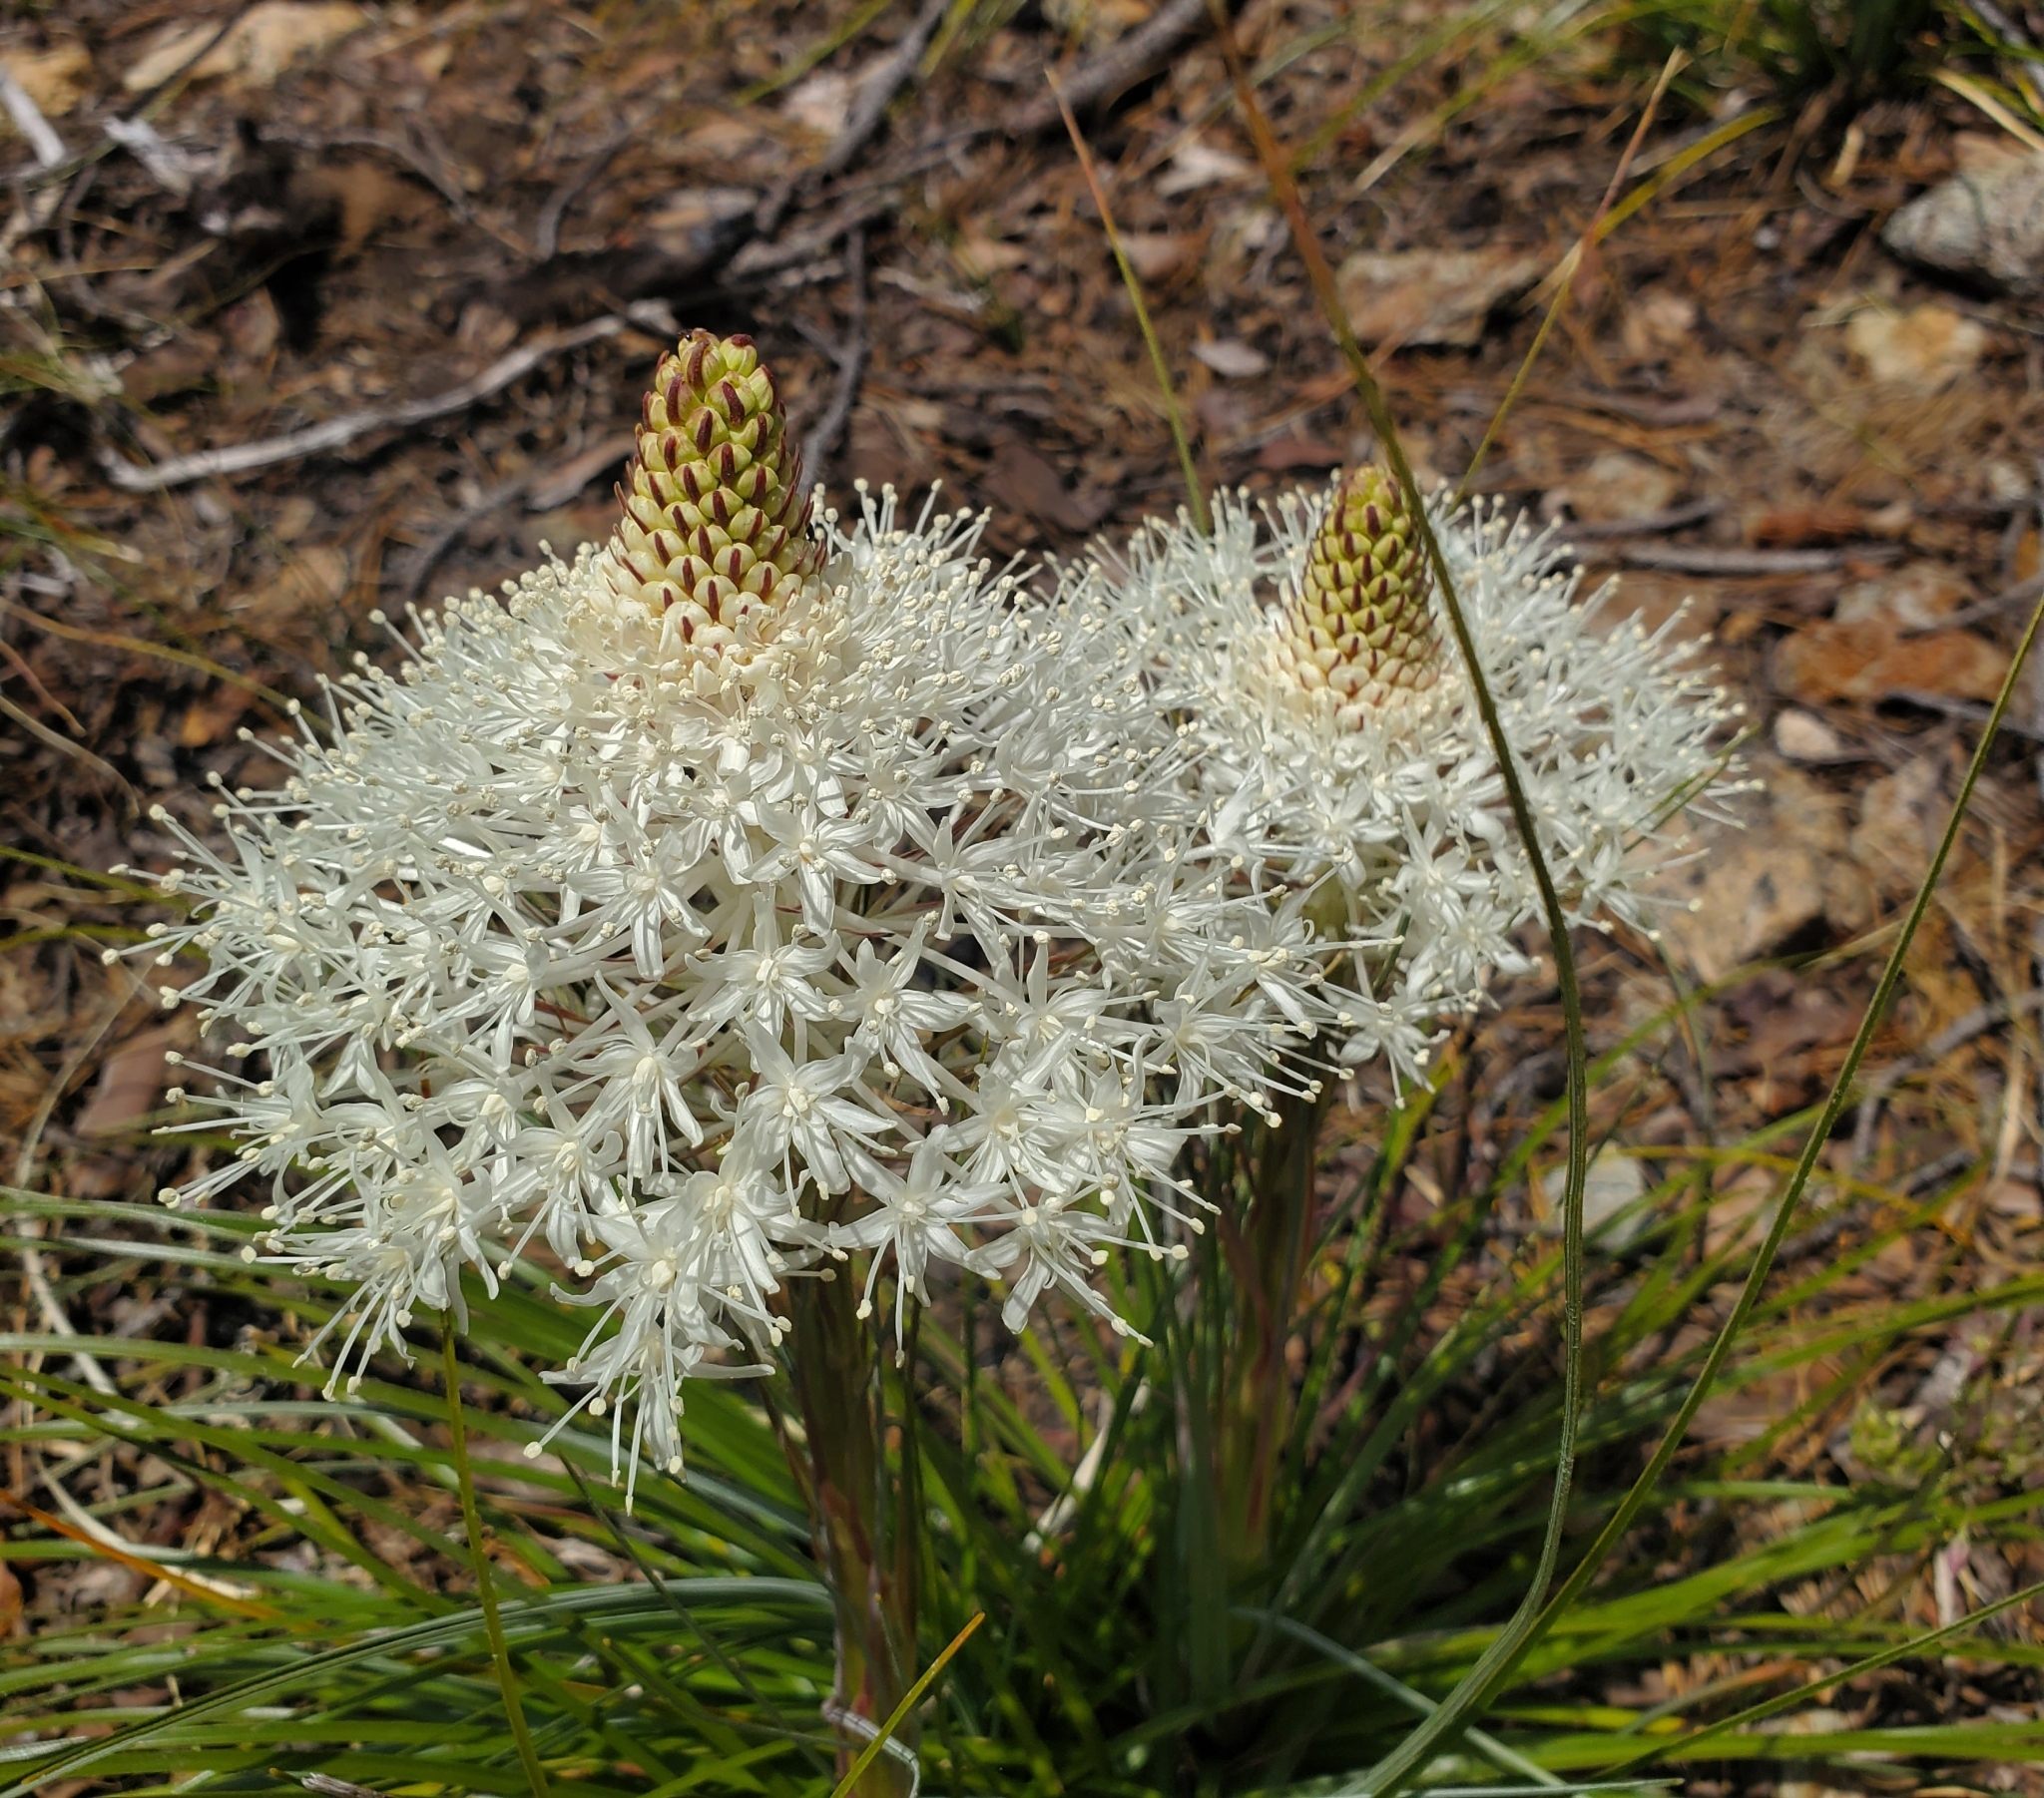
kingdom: Plantae
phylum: Tracheophyta
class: Liliopsida
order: Liliales
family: Melanthiaceae
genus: Xerophyllum
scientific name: Xerophyllum tenax
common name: Bear-grass
